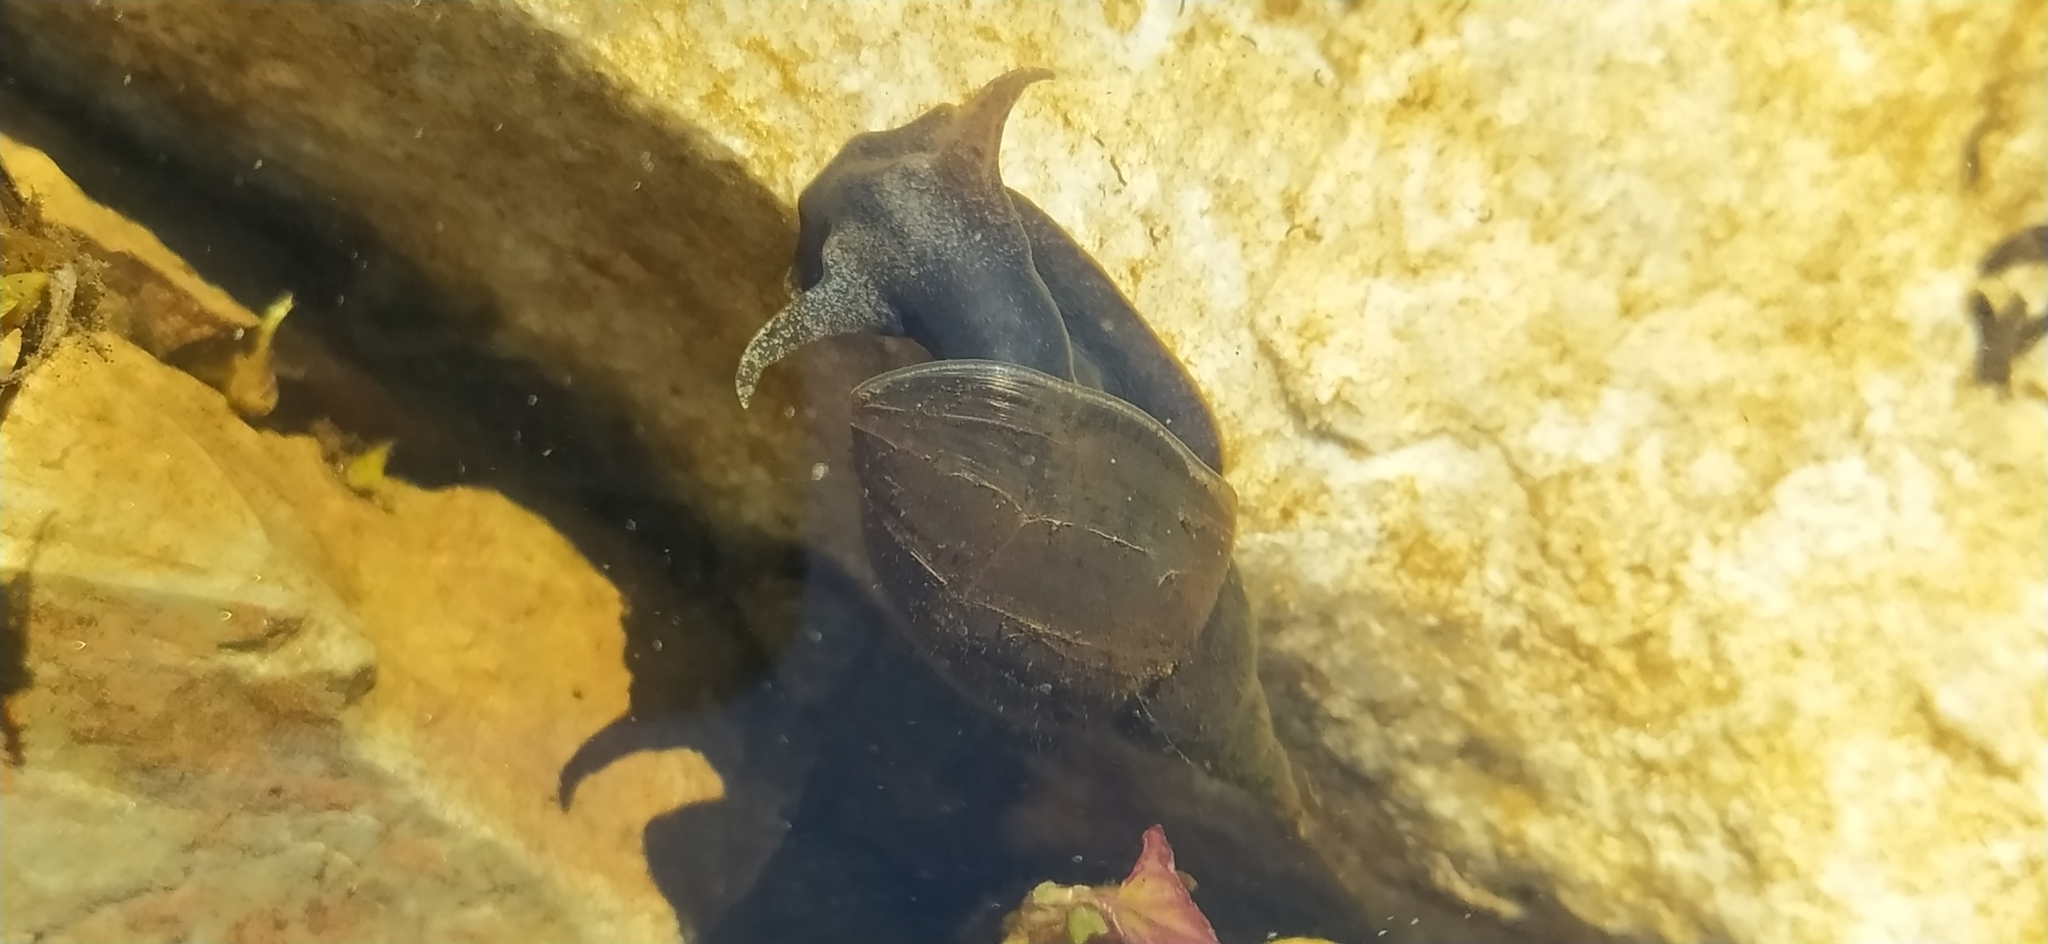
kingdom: Animalia
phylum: Mollusca
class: Gastropoda
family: Lymnaeidae
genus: Lymnaea
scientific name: Lymnaea stagnalis
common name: Great pond snail
